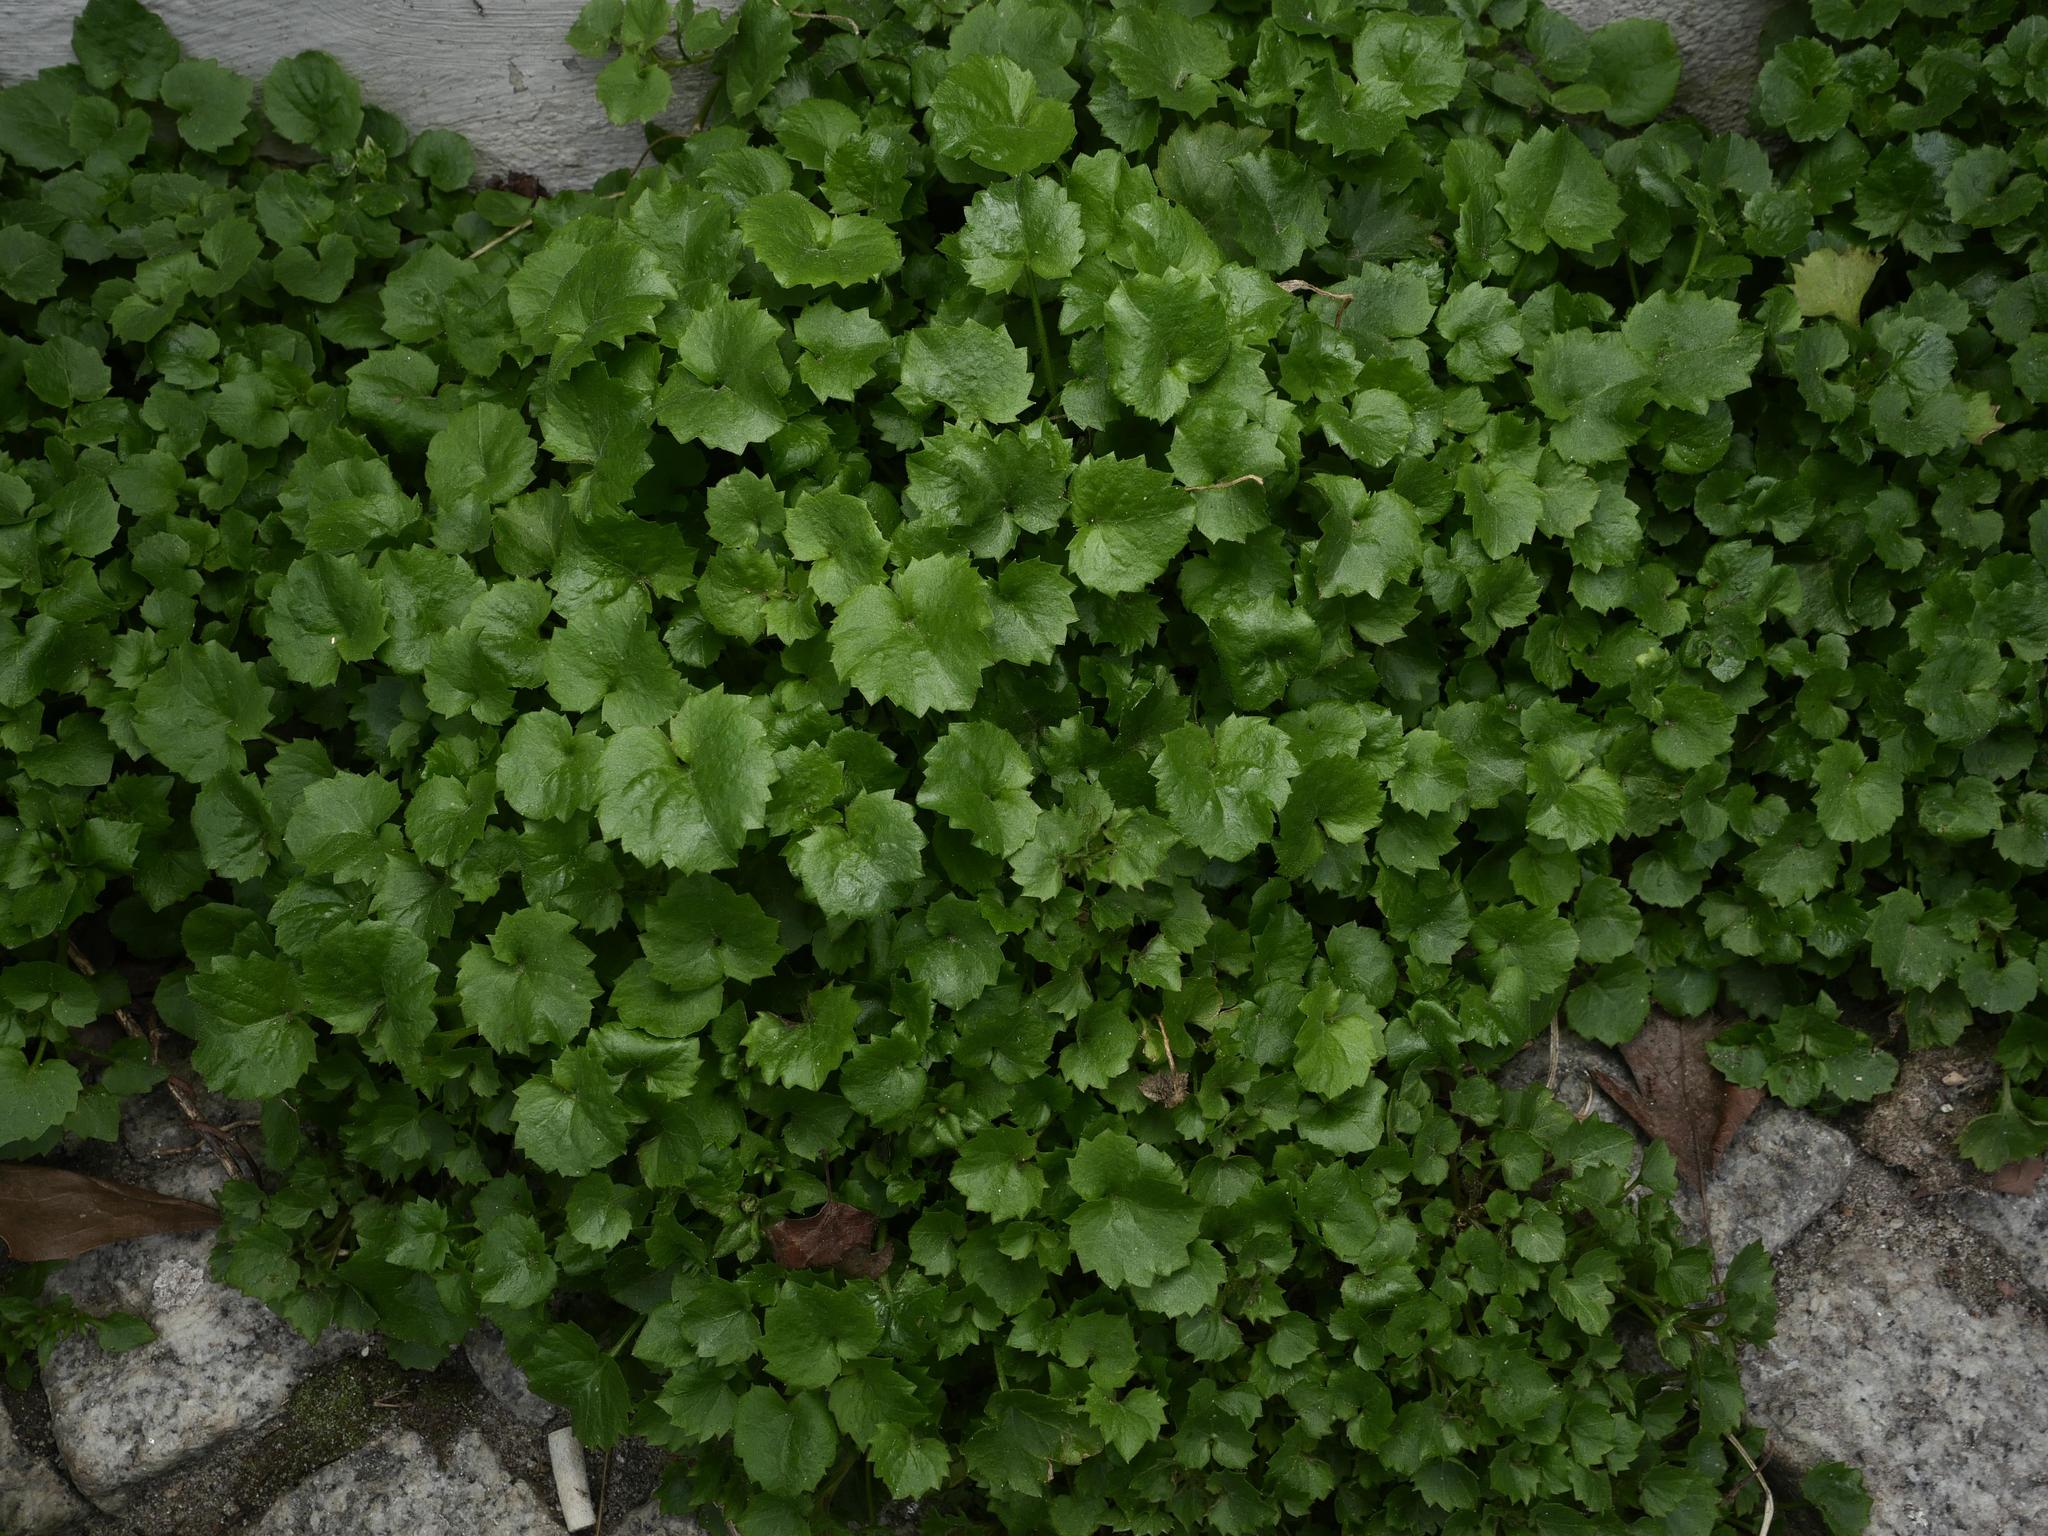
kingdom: Plantae
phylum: Tracheophyta
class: Magnoliopsida
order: Asterales
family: Campanulaceae
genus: Campanula
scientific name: Campanula poscharskyana
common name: Trailing bellflower
